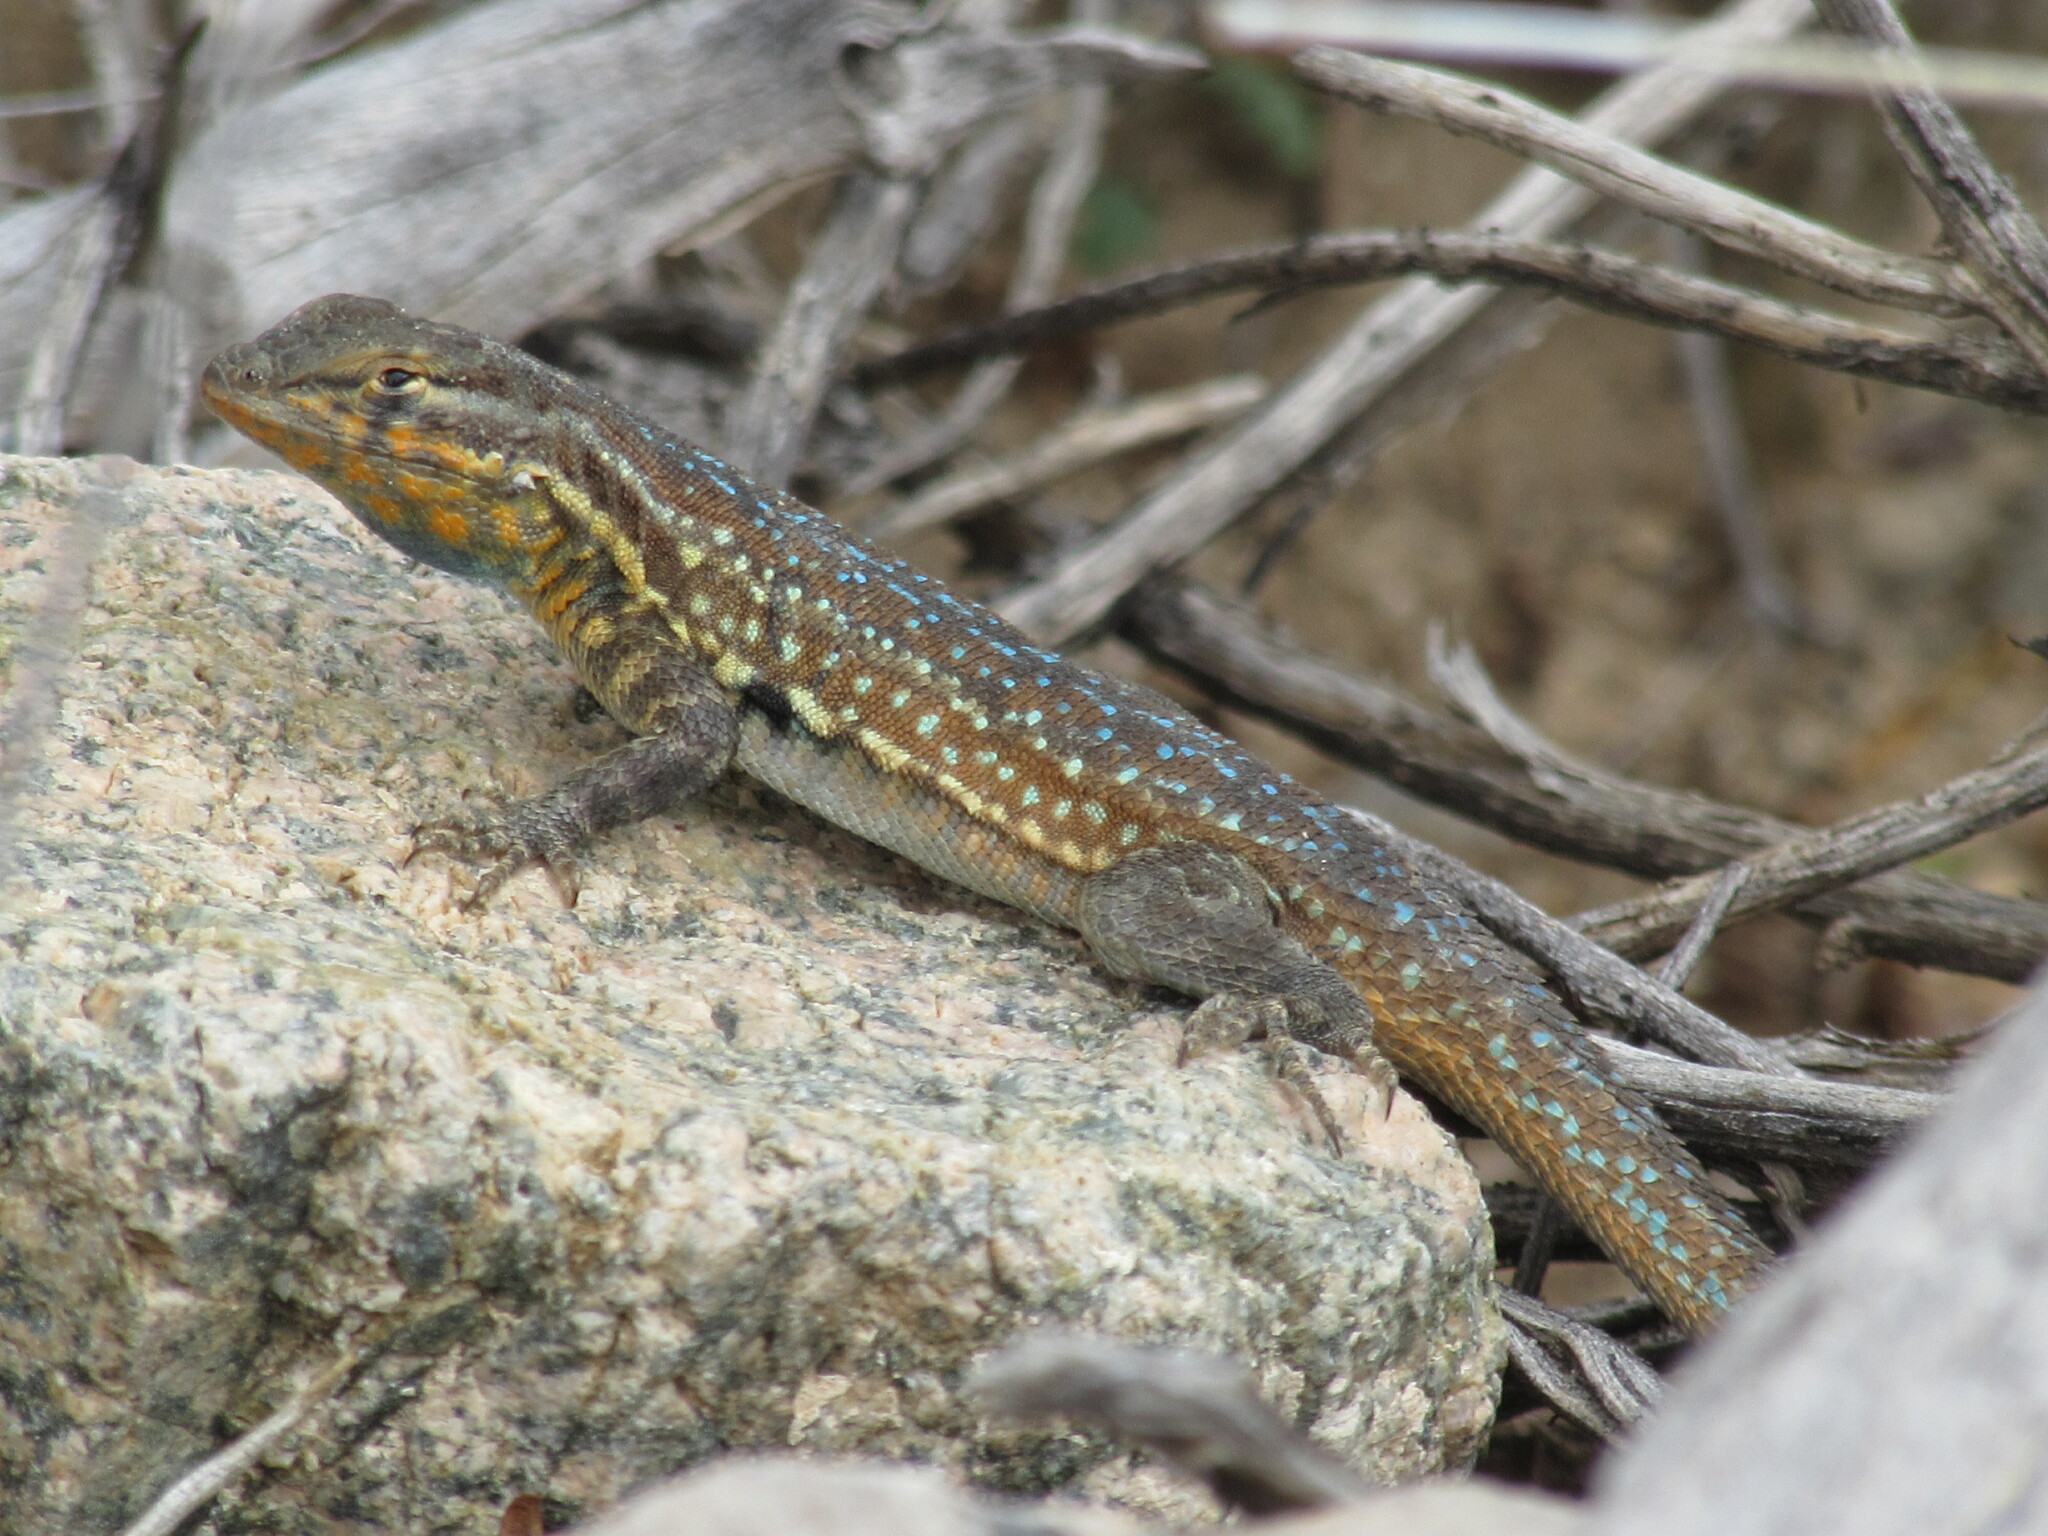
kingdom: Animalia
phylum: Chordata
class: Squamata
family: Phrynosomatidae
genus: Uta
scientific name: Uta stansburiana
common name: Side-blotched lizard
